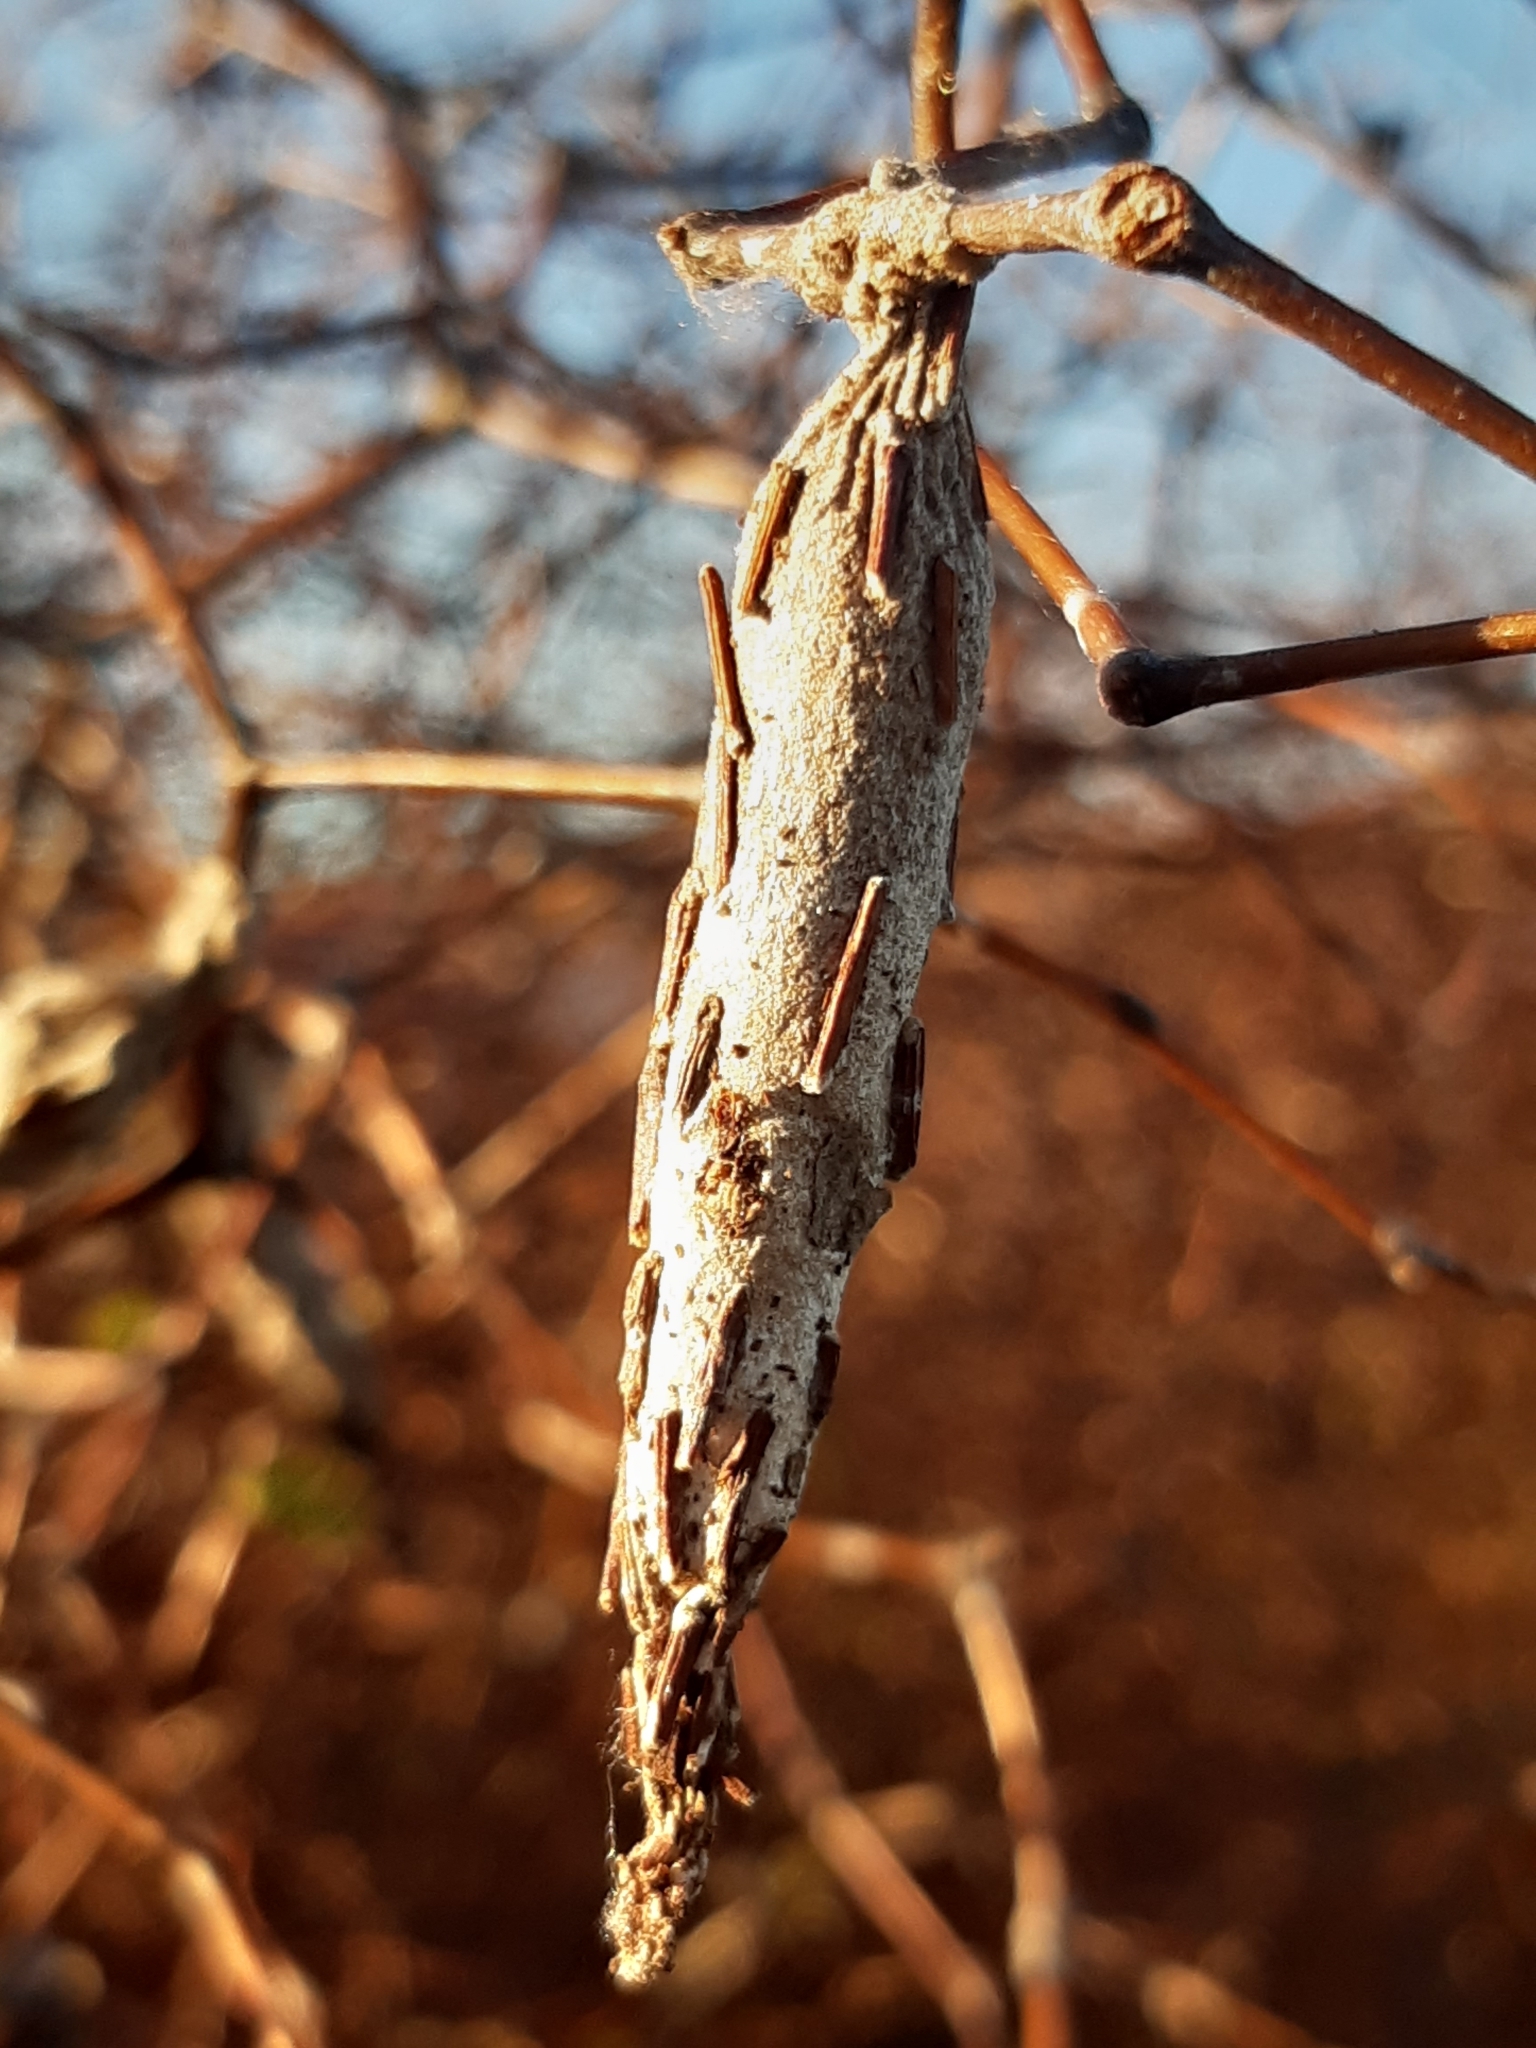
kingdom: Animalia
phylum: Arthropoda
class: Insecta
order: Lepidoptera
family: Psychidae
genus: Liothula
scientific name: Liothula omnivora
